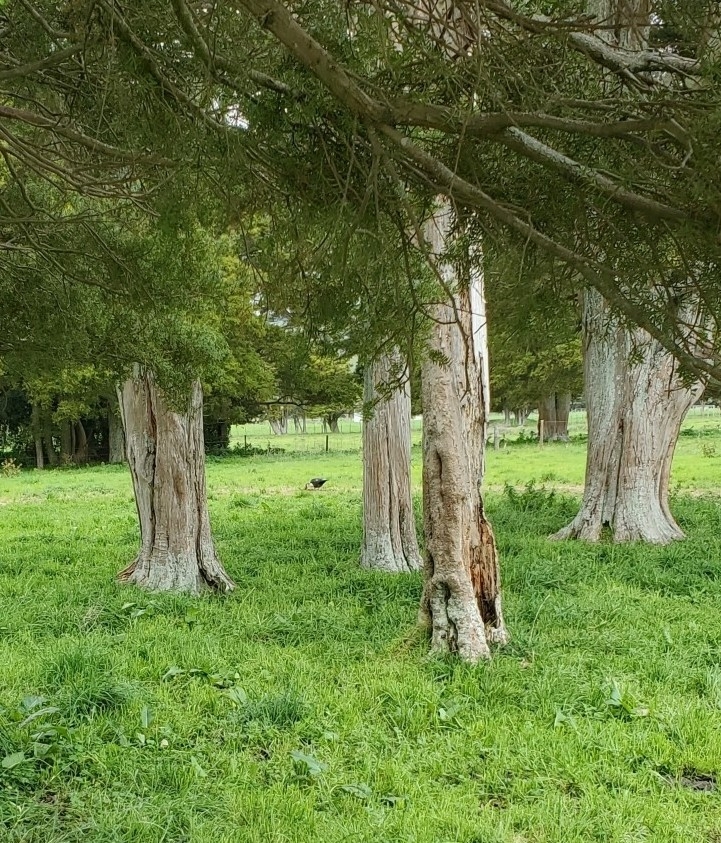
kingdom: Animalia
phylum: Chordata
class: Aves
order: Anseriformes
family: Anatidae
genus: Cairina
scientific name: Cairina moschata
